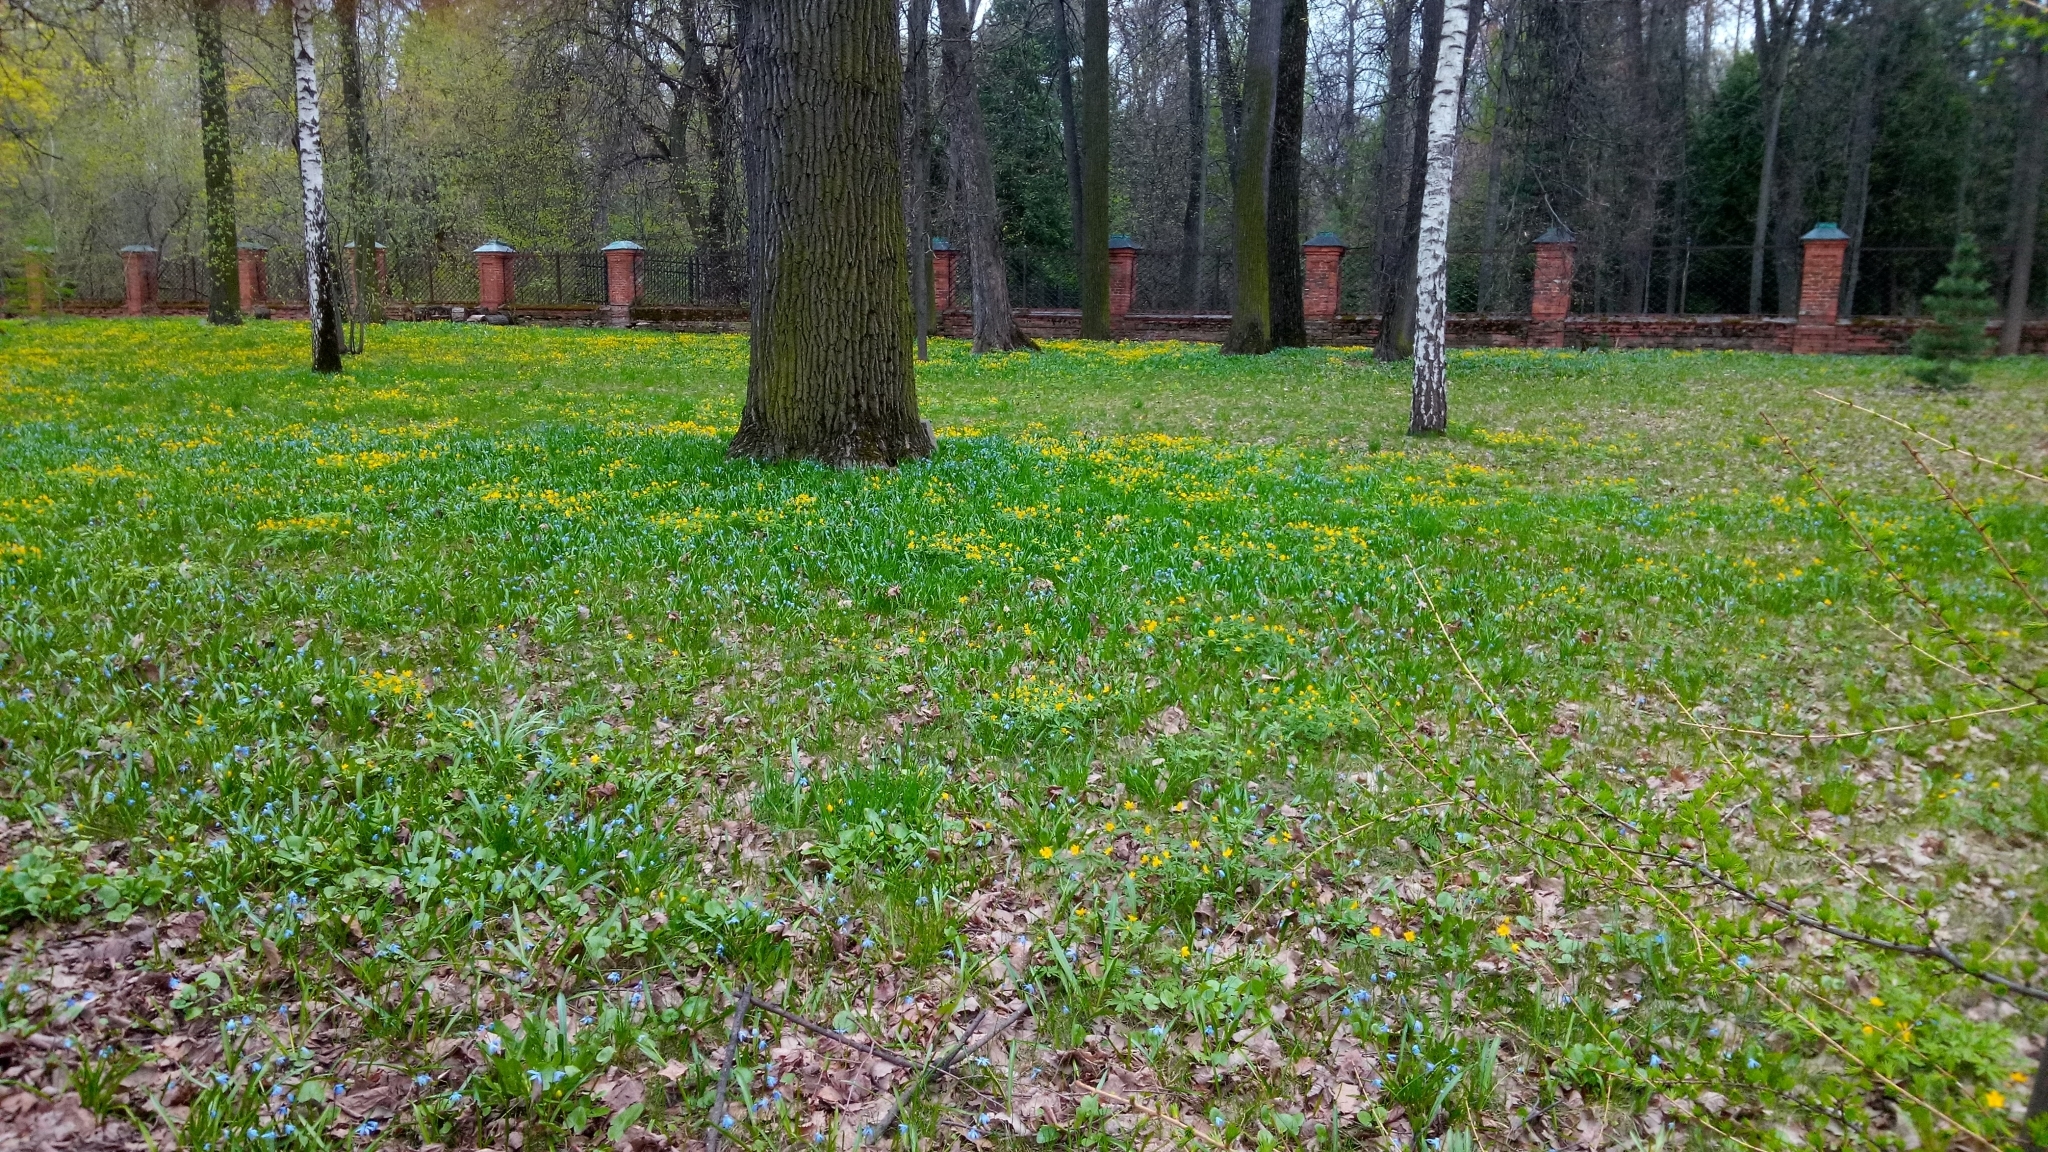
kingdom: Plantae
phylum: Tracheophyta
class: Liliopsida
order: Asparagales
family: Asparagaceae
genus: Scilla
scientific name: Scilla siberica
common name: Siberian squill
